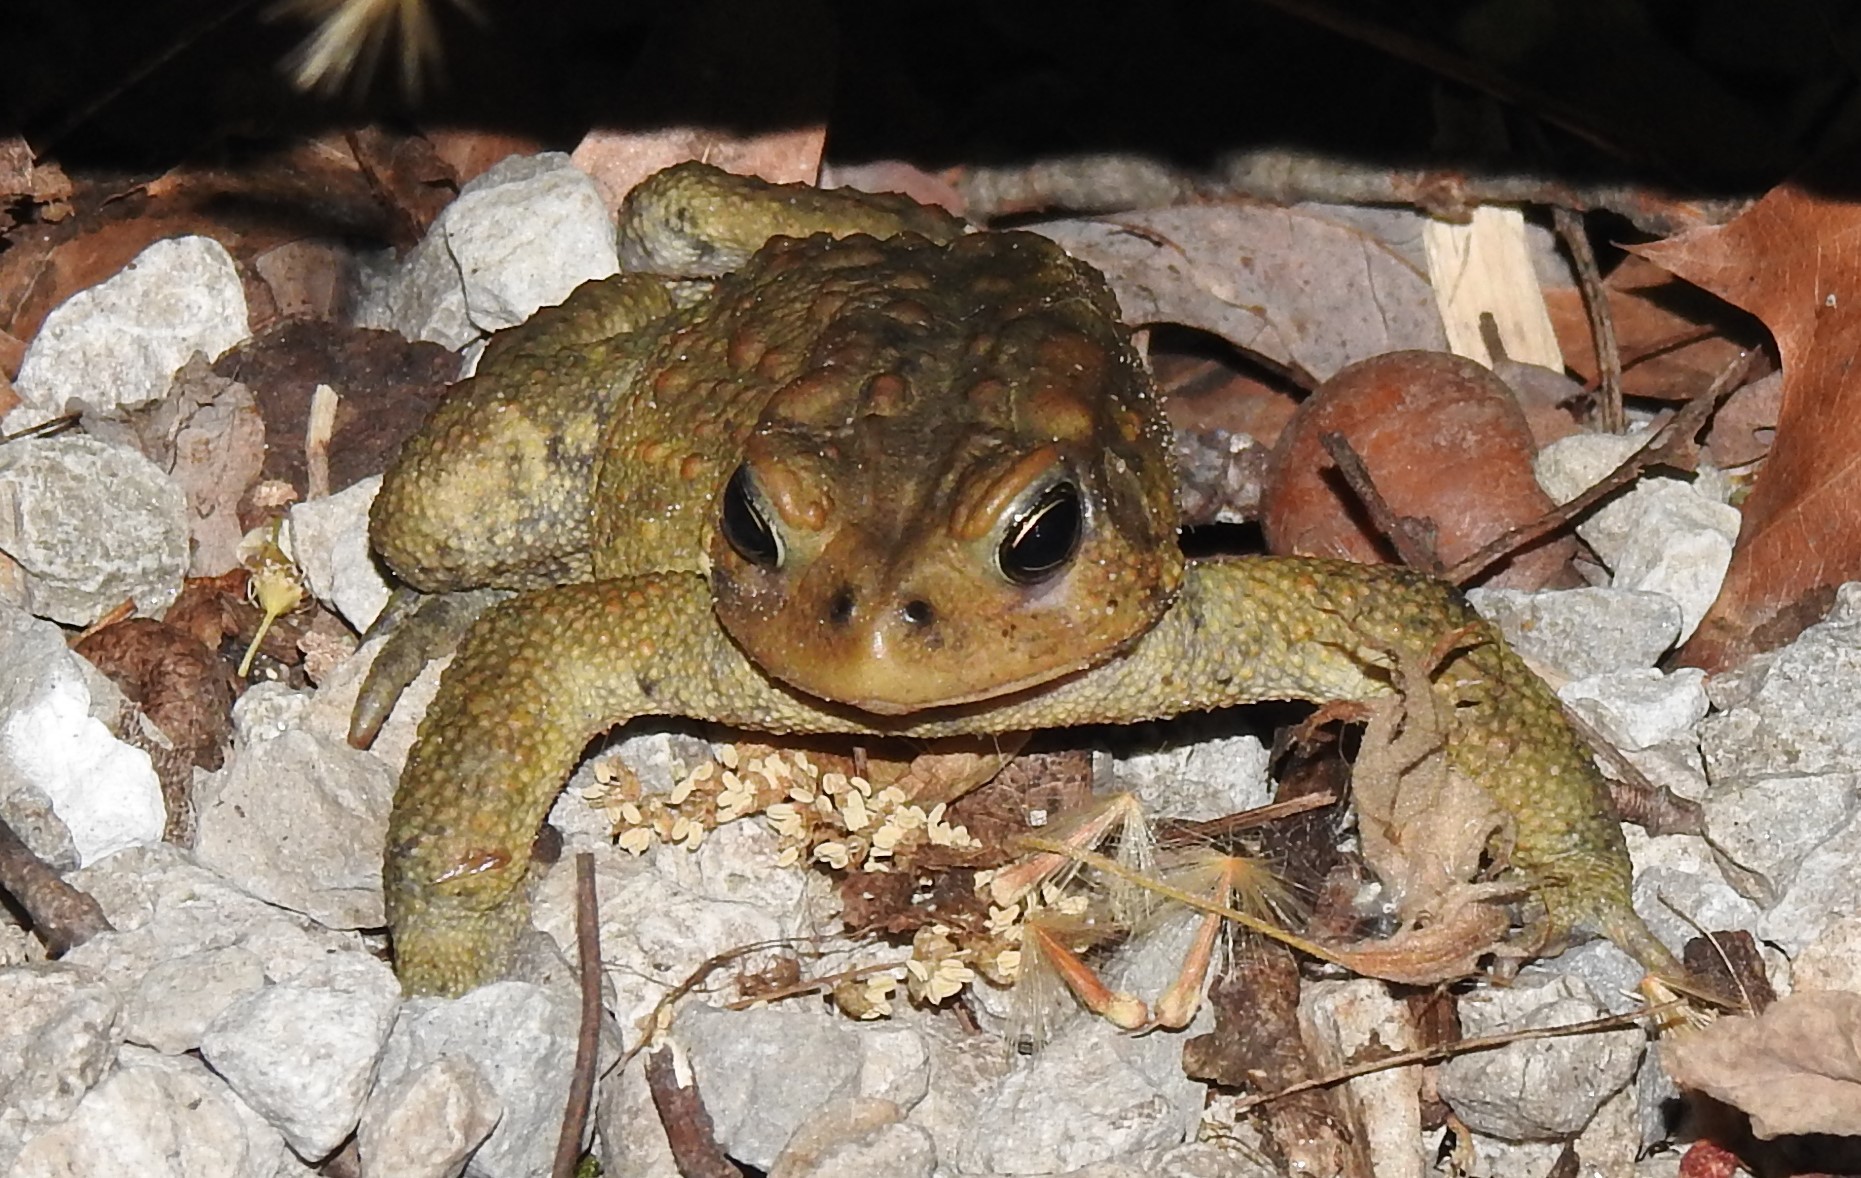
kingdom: Animalia
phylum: Chordata
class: Amphibia
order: Anura
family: Bufonidae
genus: Anaxyrus
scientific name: Anaxyrus americanus
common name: American toad
